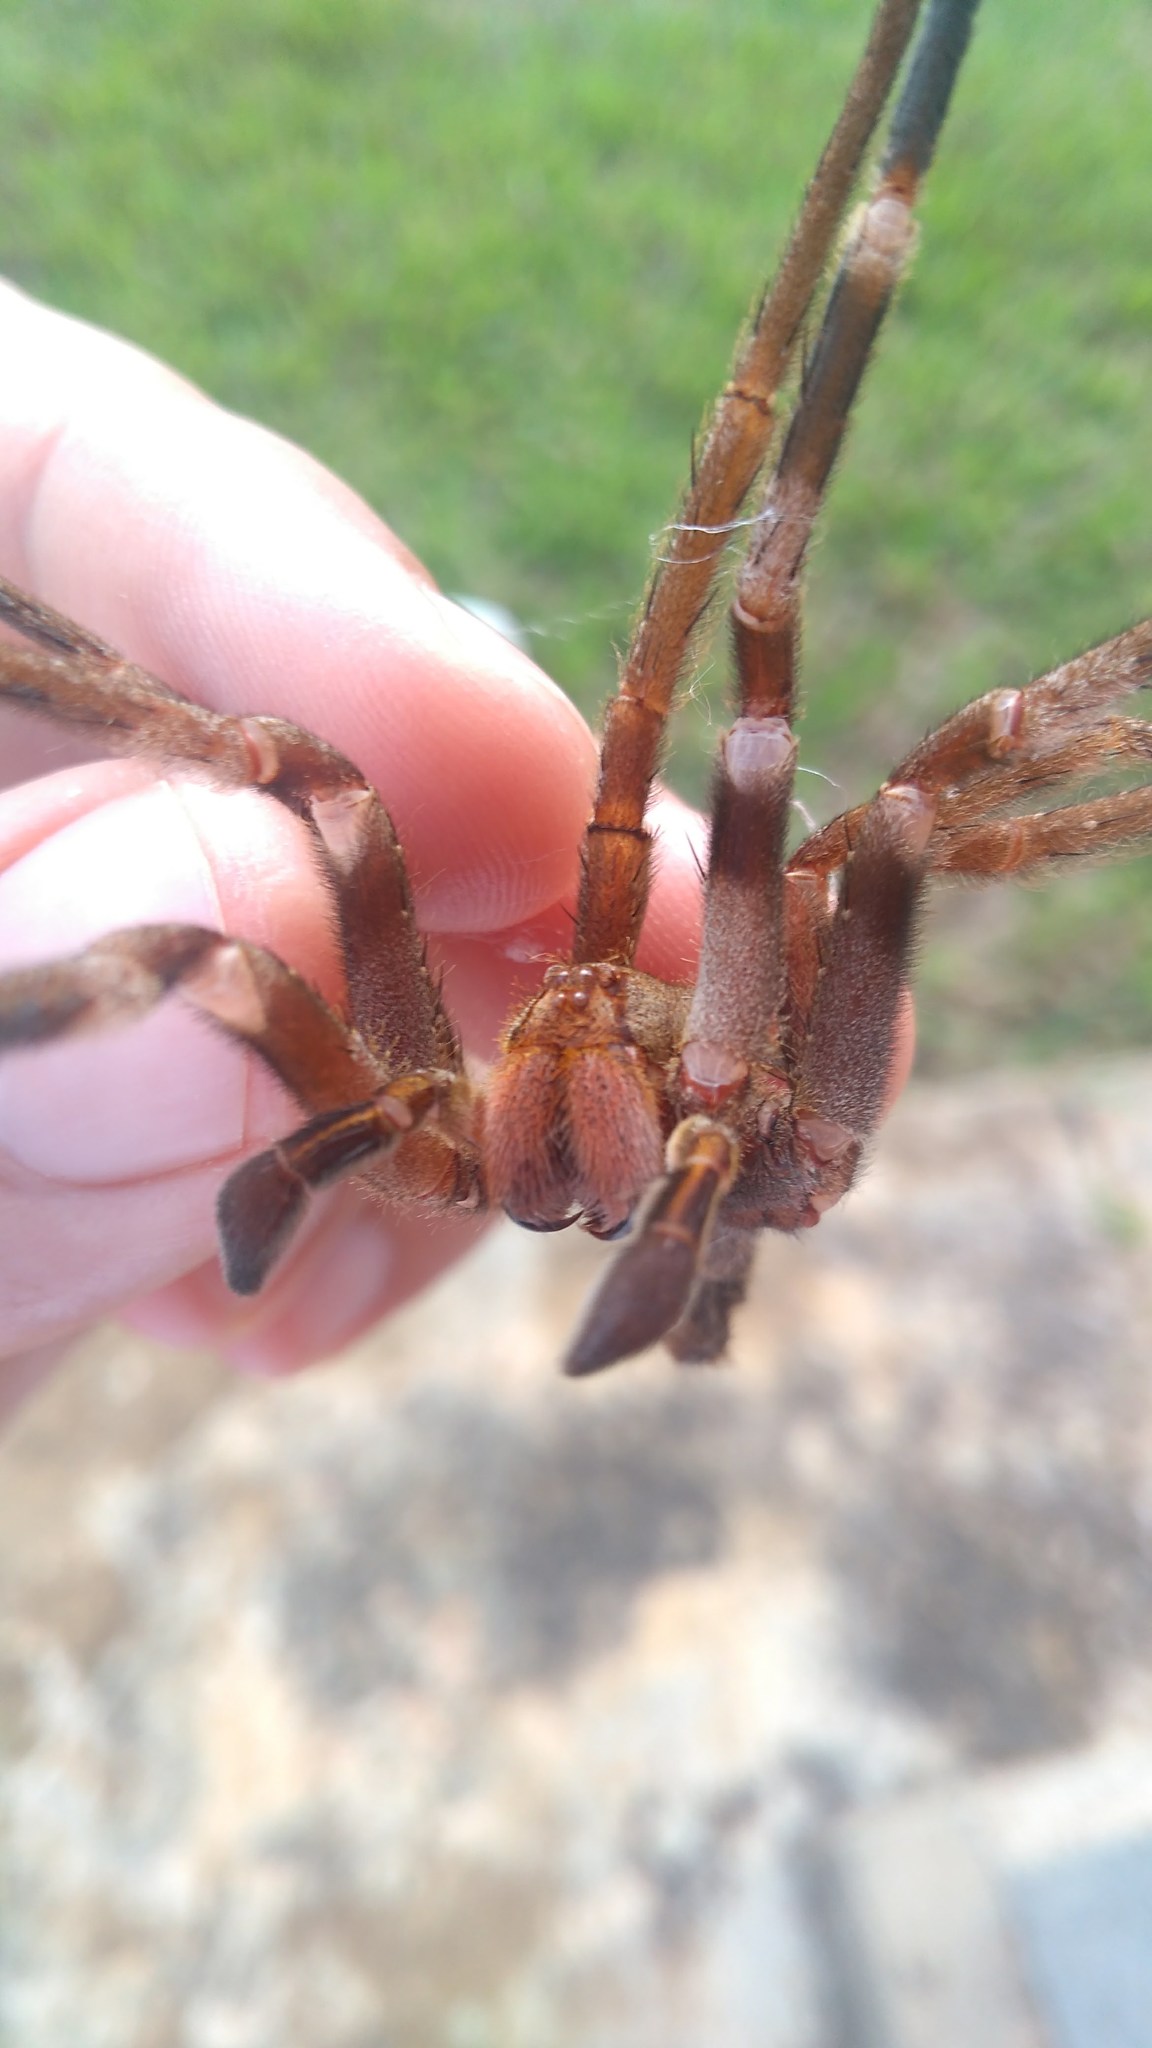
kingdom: Animalia
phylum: Arthropoda
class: Arachnida
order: Araneae
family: Ctenidae
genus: Phoneutria
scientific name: Phoneutria eickstedtae
